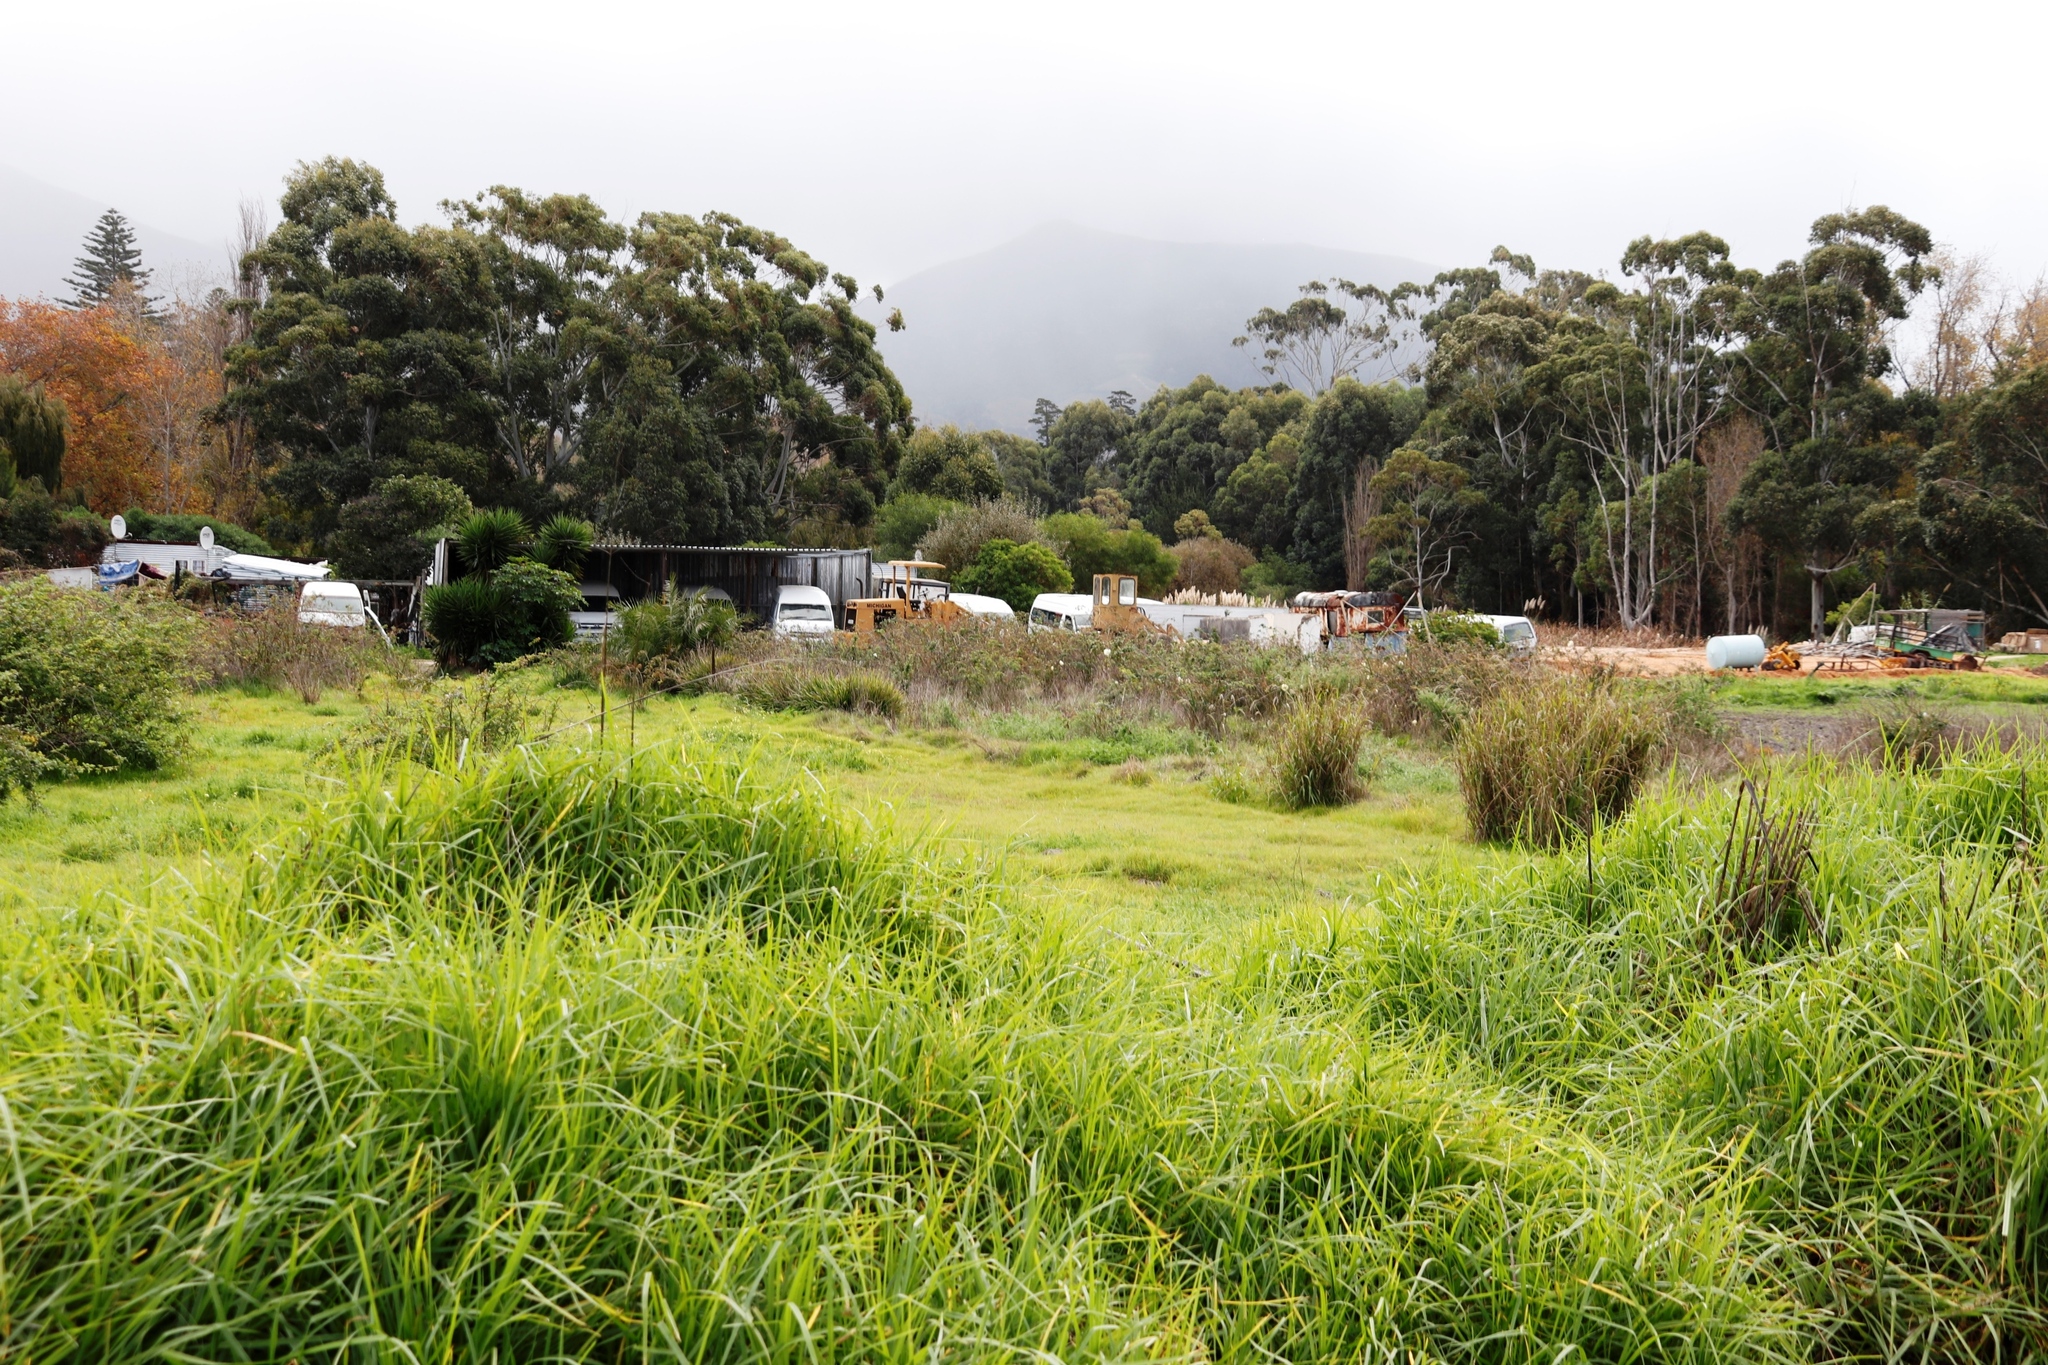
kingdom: Plantae
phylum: Tracheophyta
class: Liliopsida
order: Poales
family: Poaceae
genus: Cenchrus
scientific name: Cenchrus clandestinus
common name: Kikuyugrass
